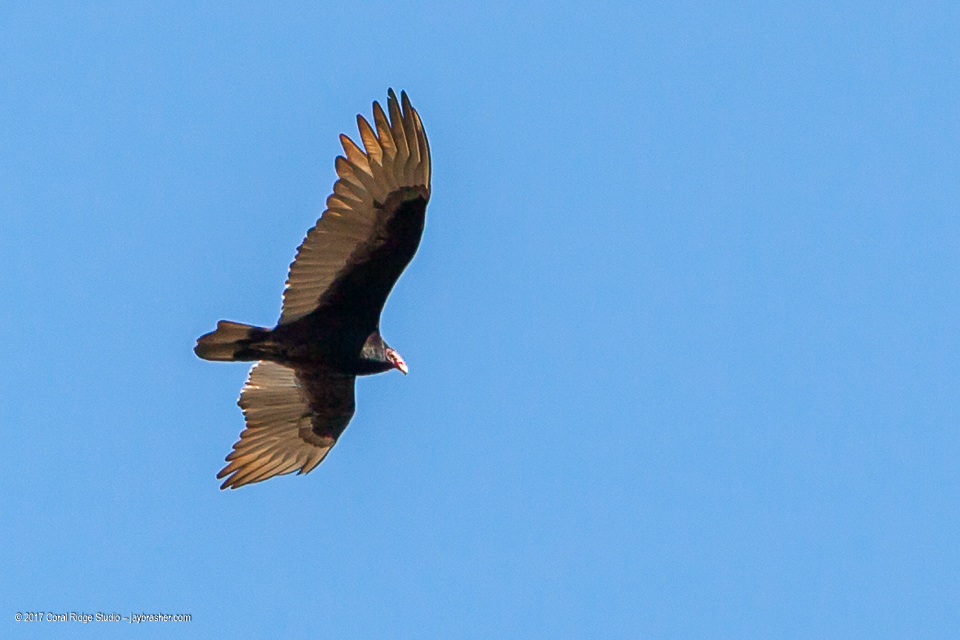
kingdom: Animalia
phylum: Chordata
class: Aves
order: Accipitriformes
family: Cathartidae
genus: Cathartes
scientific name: Cathartes aura
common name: Turkey vulture
